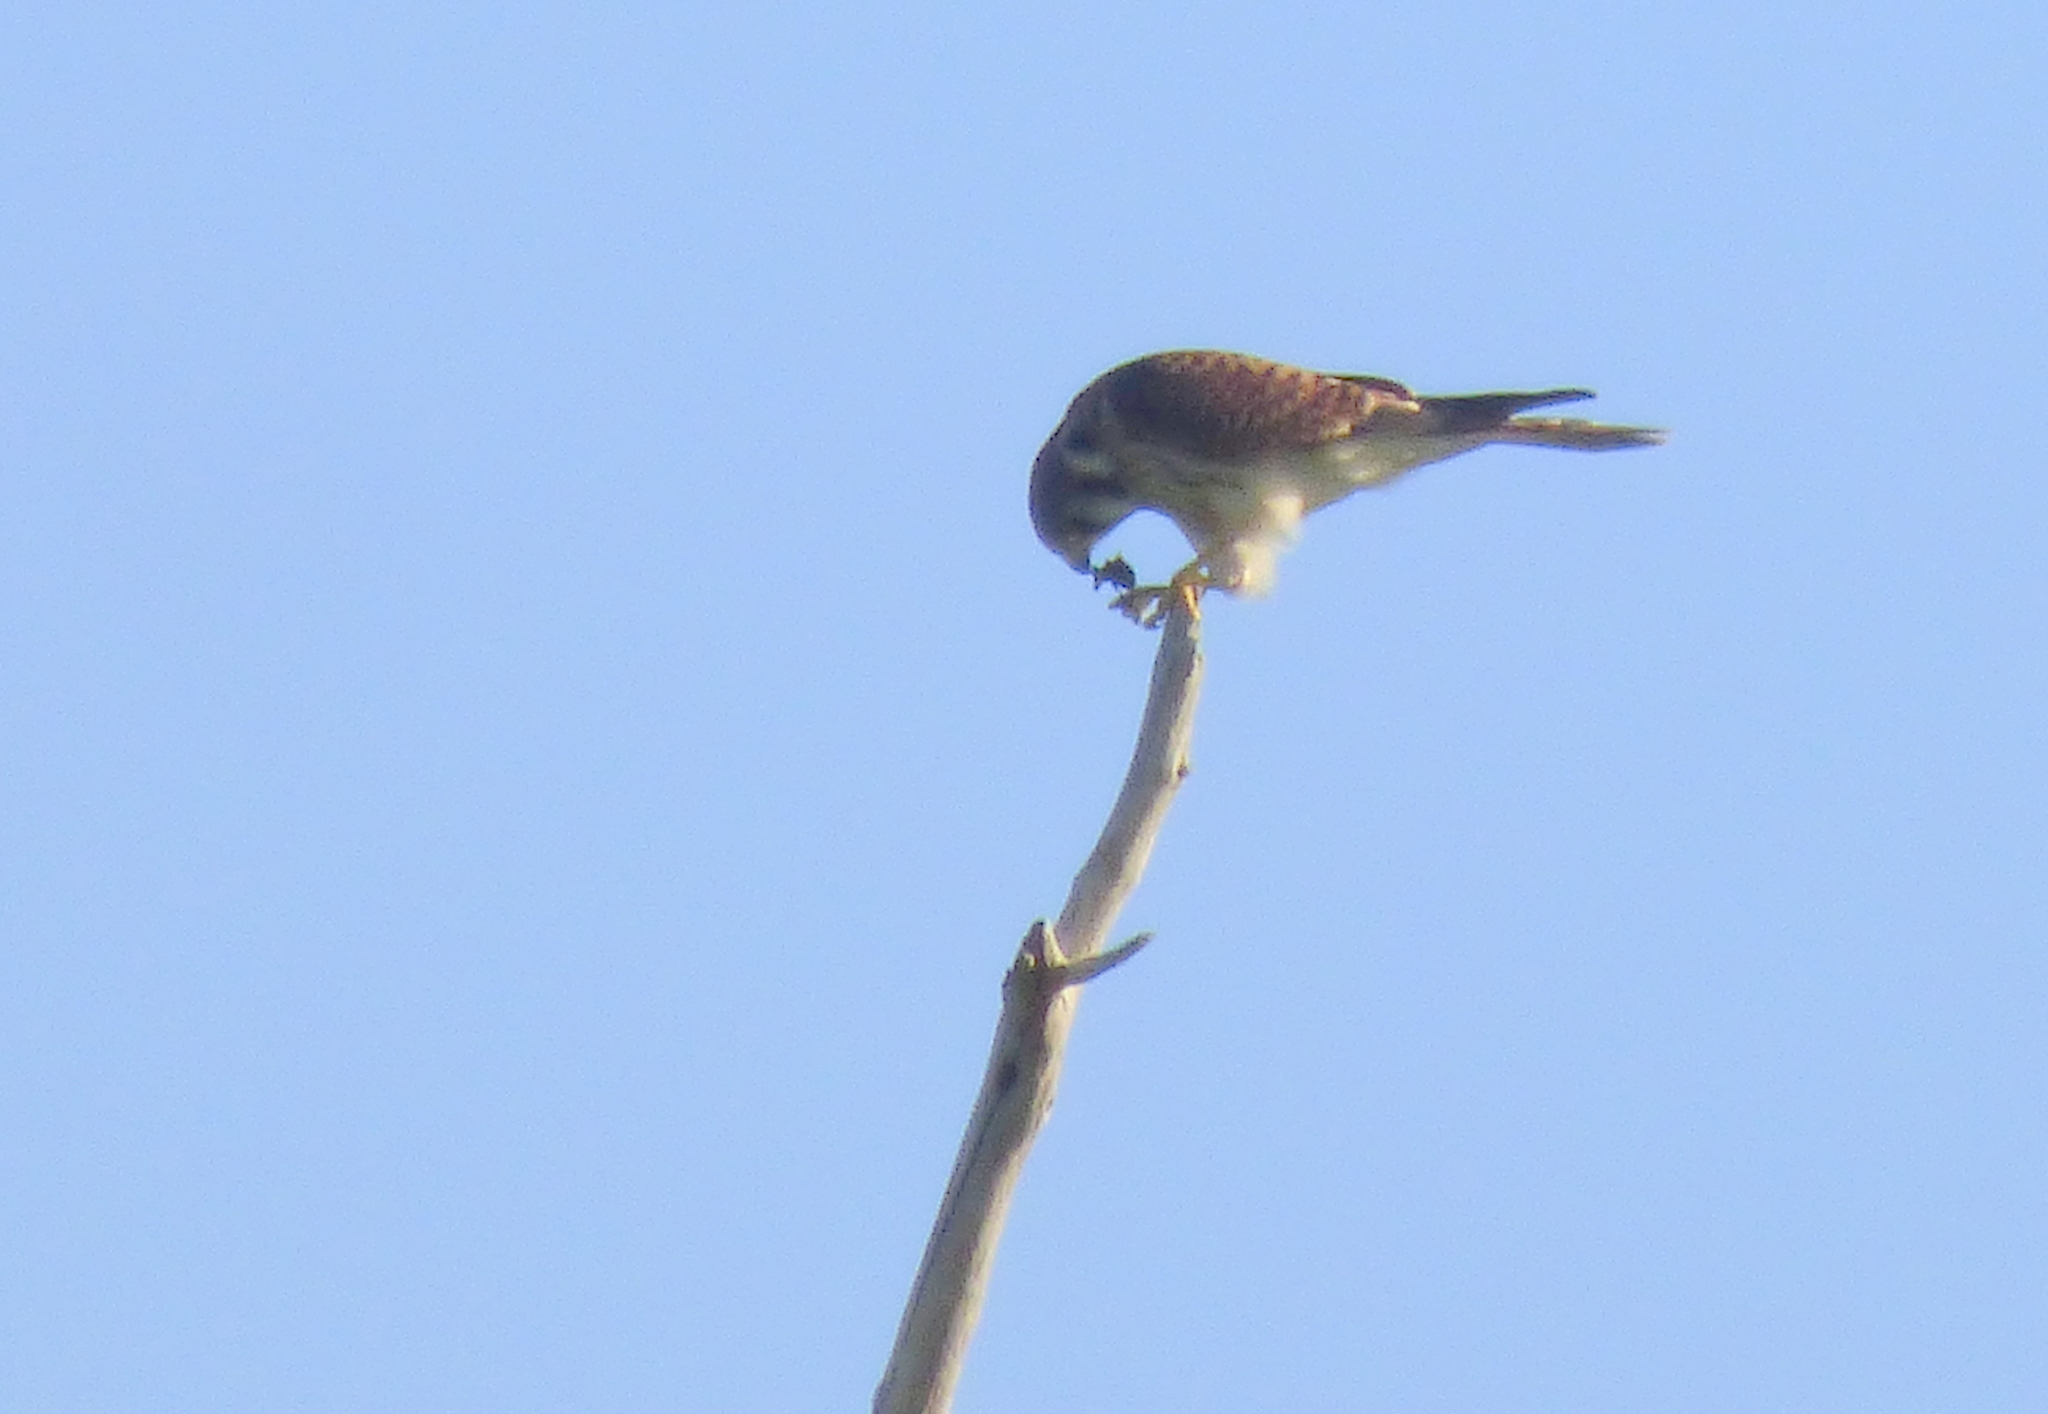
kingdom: Animalia
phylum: Chordata
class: Aves
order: Falconiformes
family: Falconidae
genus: Falco
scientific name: Falco sparverius
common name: American kestrel
